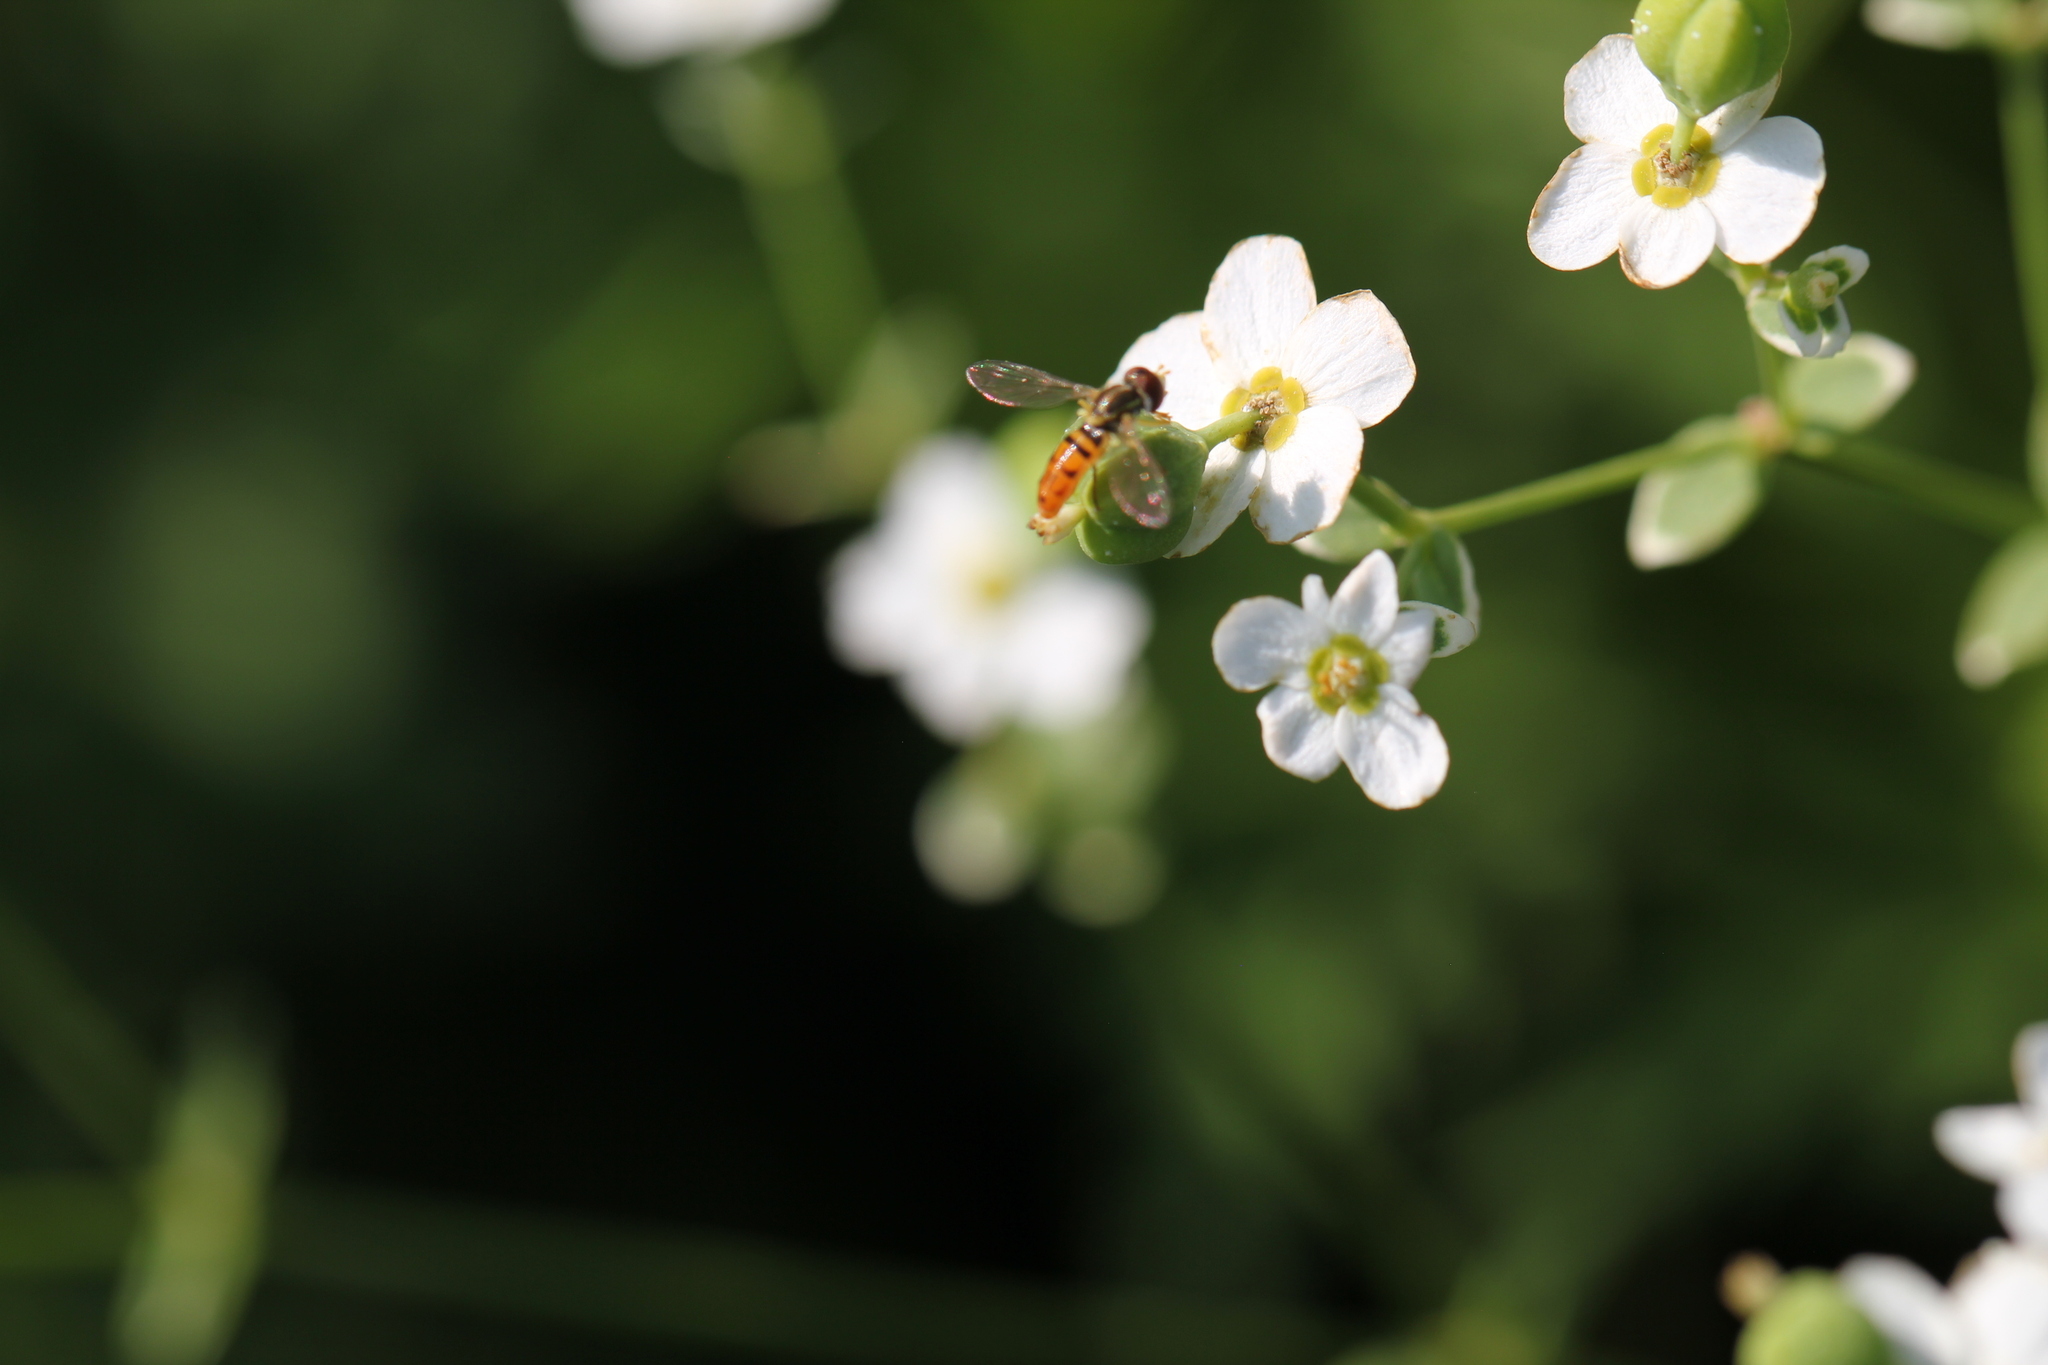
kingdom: Animalia
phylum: Arthropoda
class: Insecta
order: Diptera
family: Syrphidae
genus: Toxomerus
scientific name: Toxomerus marginatus
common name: Syrphid fly
